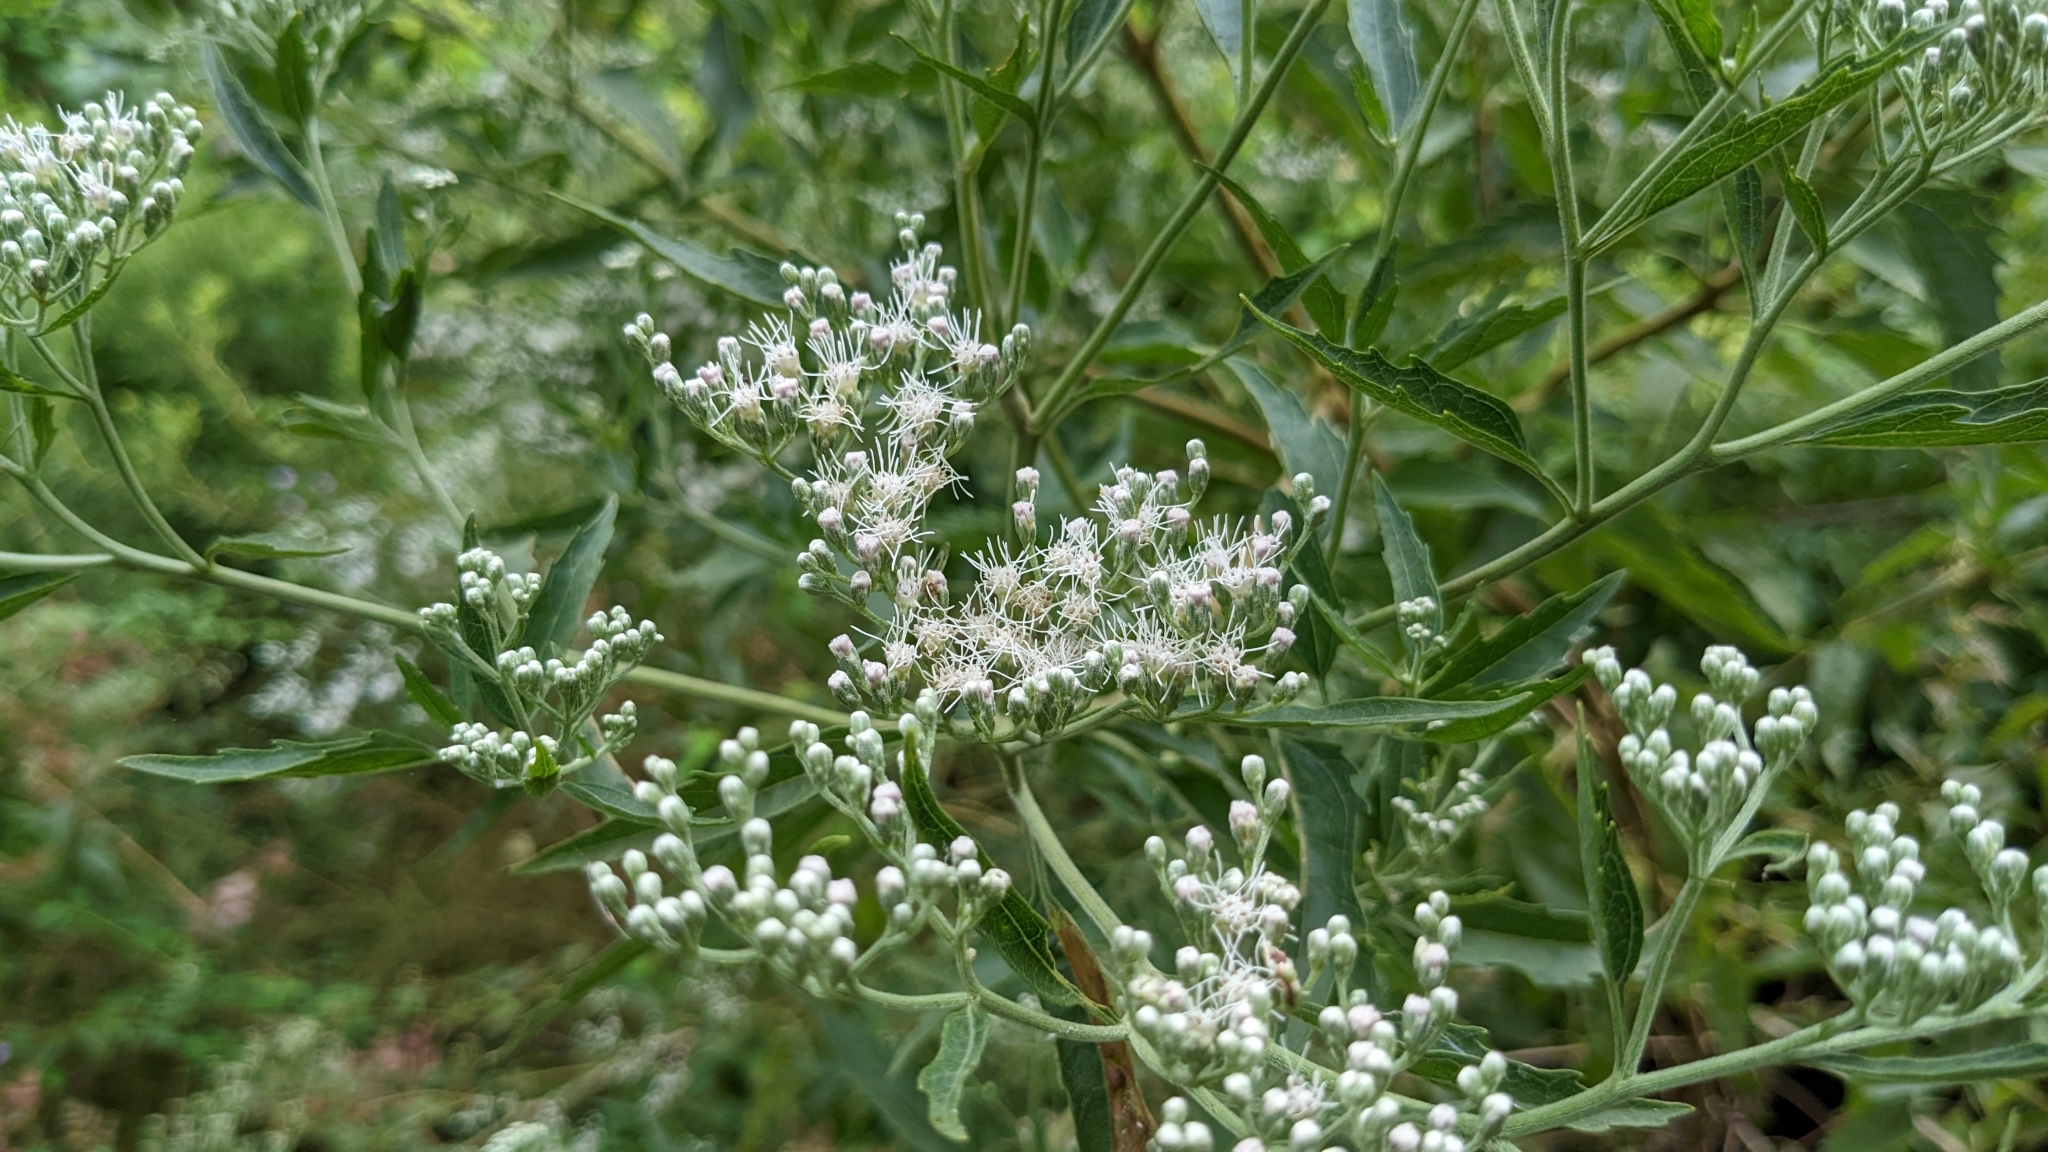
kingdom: Plantae
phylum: Tracheophyta
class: Magnoliopsida
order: Asterales
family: Asteraceae
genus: Eupatorium
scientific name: Eupatorium serotinum
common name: Late boneset
